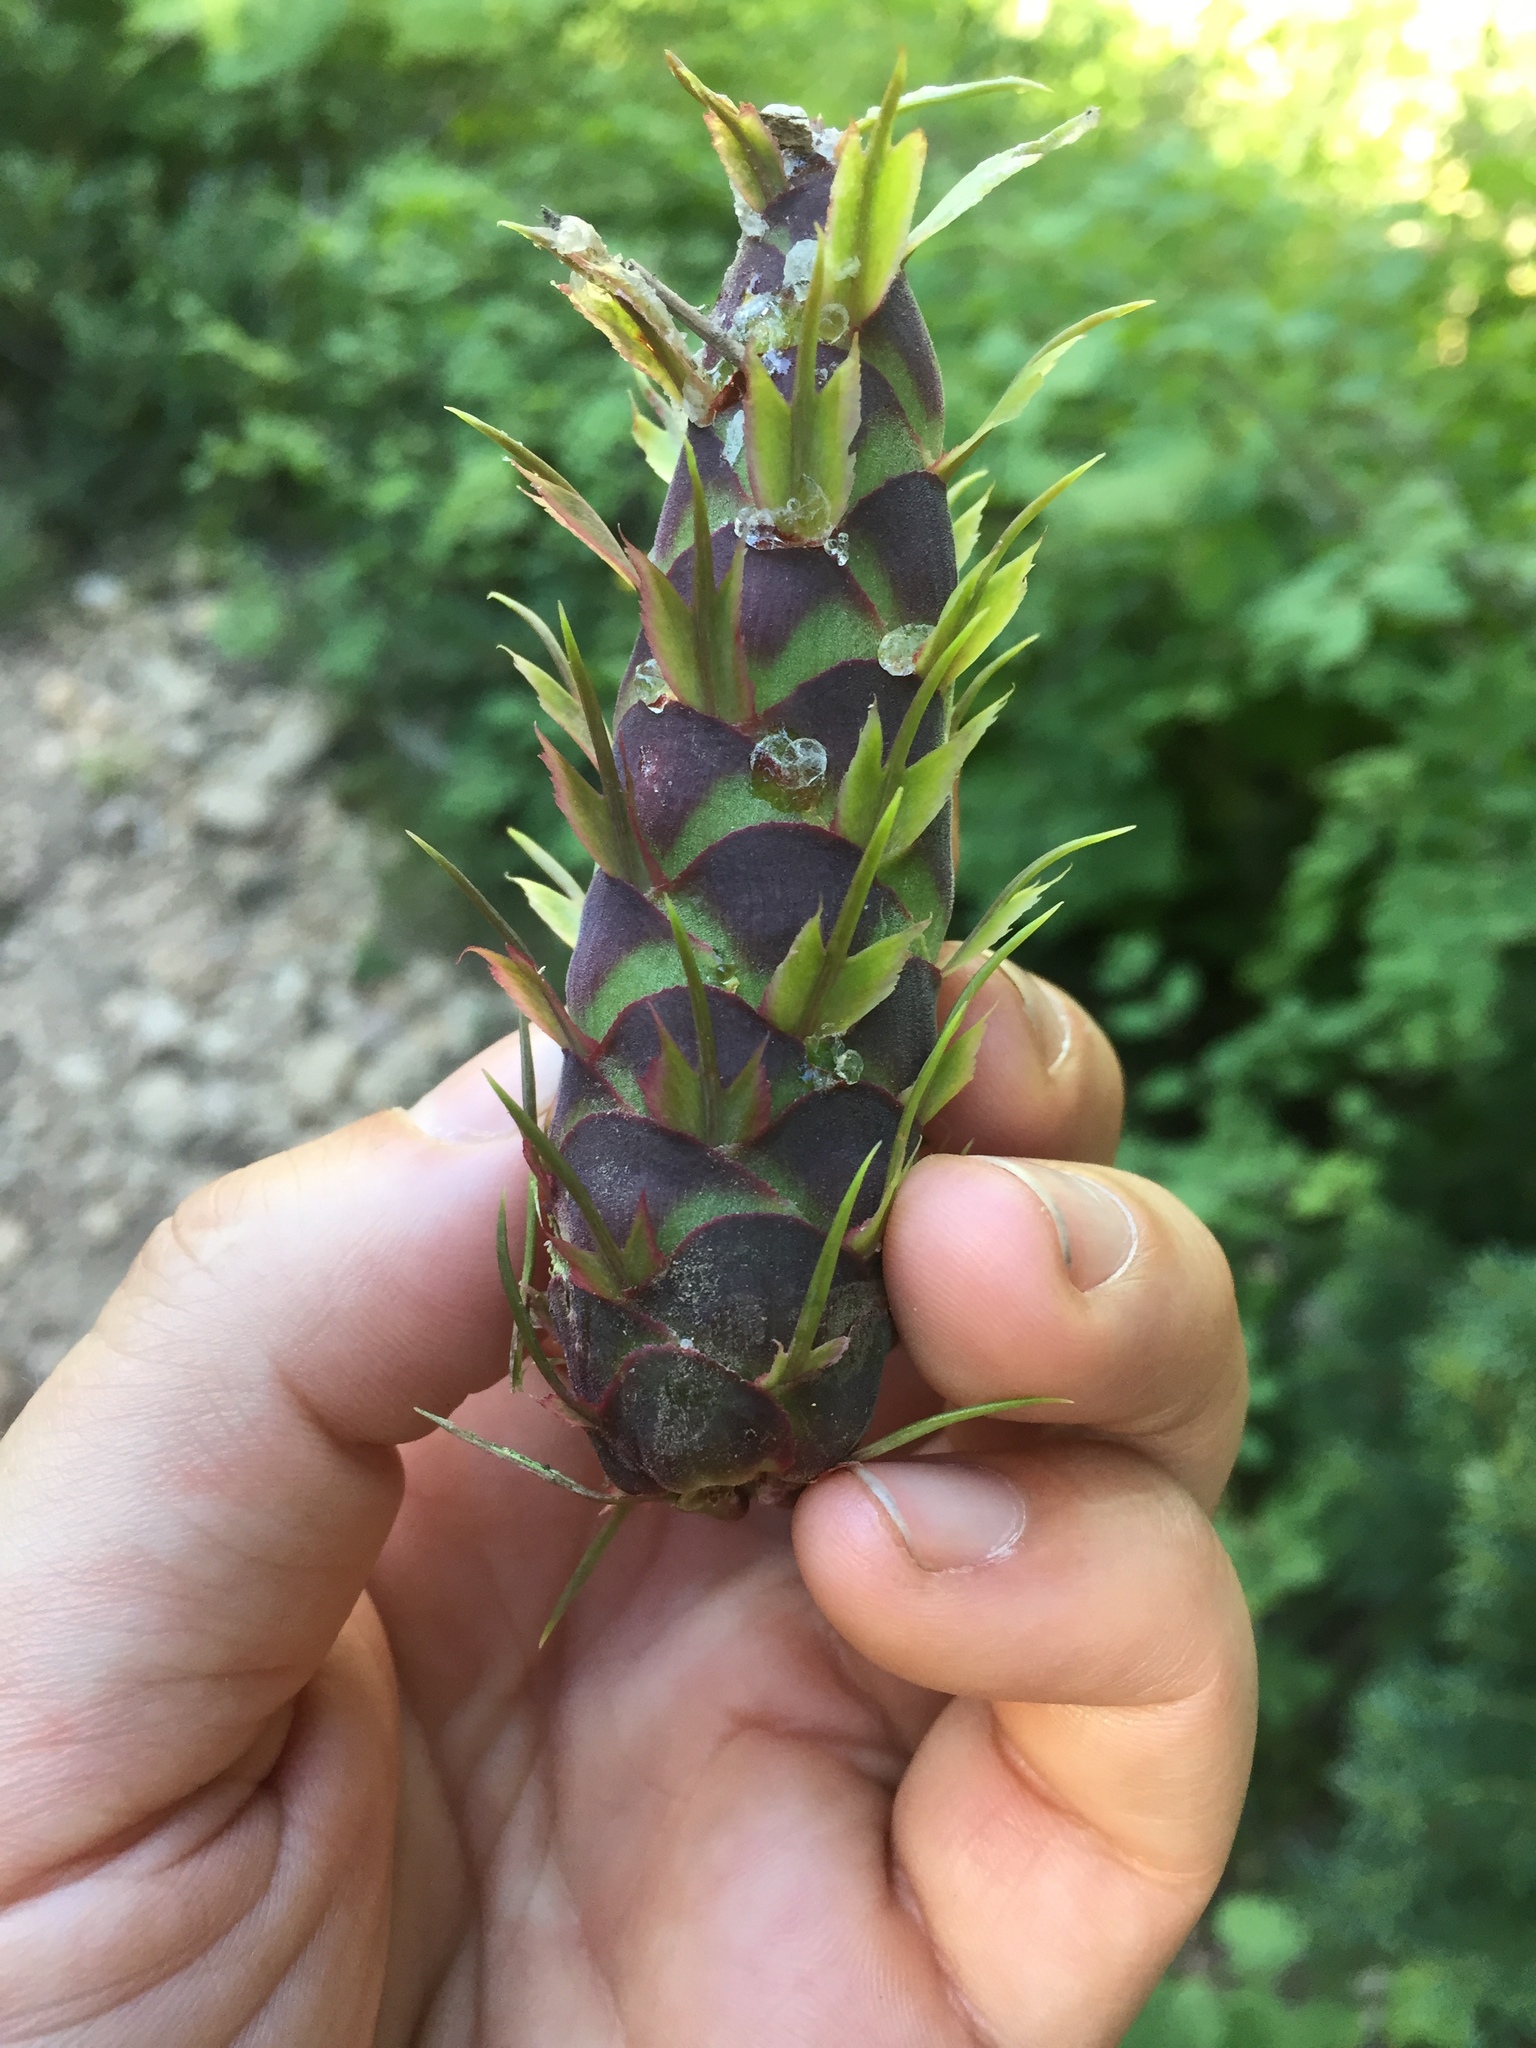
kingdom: Plantae
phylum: Tracheophyta
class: Pinopsida
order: Pinales
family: Pinaceae
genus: Pseudotsuga
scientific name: Pseudotsuga menziesii
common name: Douglas fir
